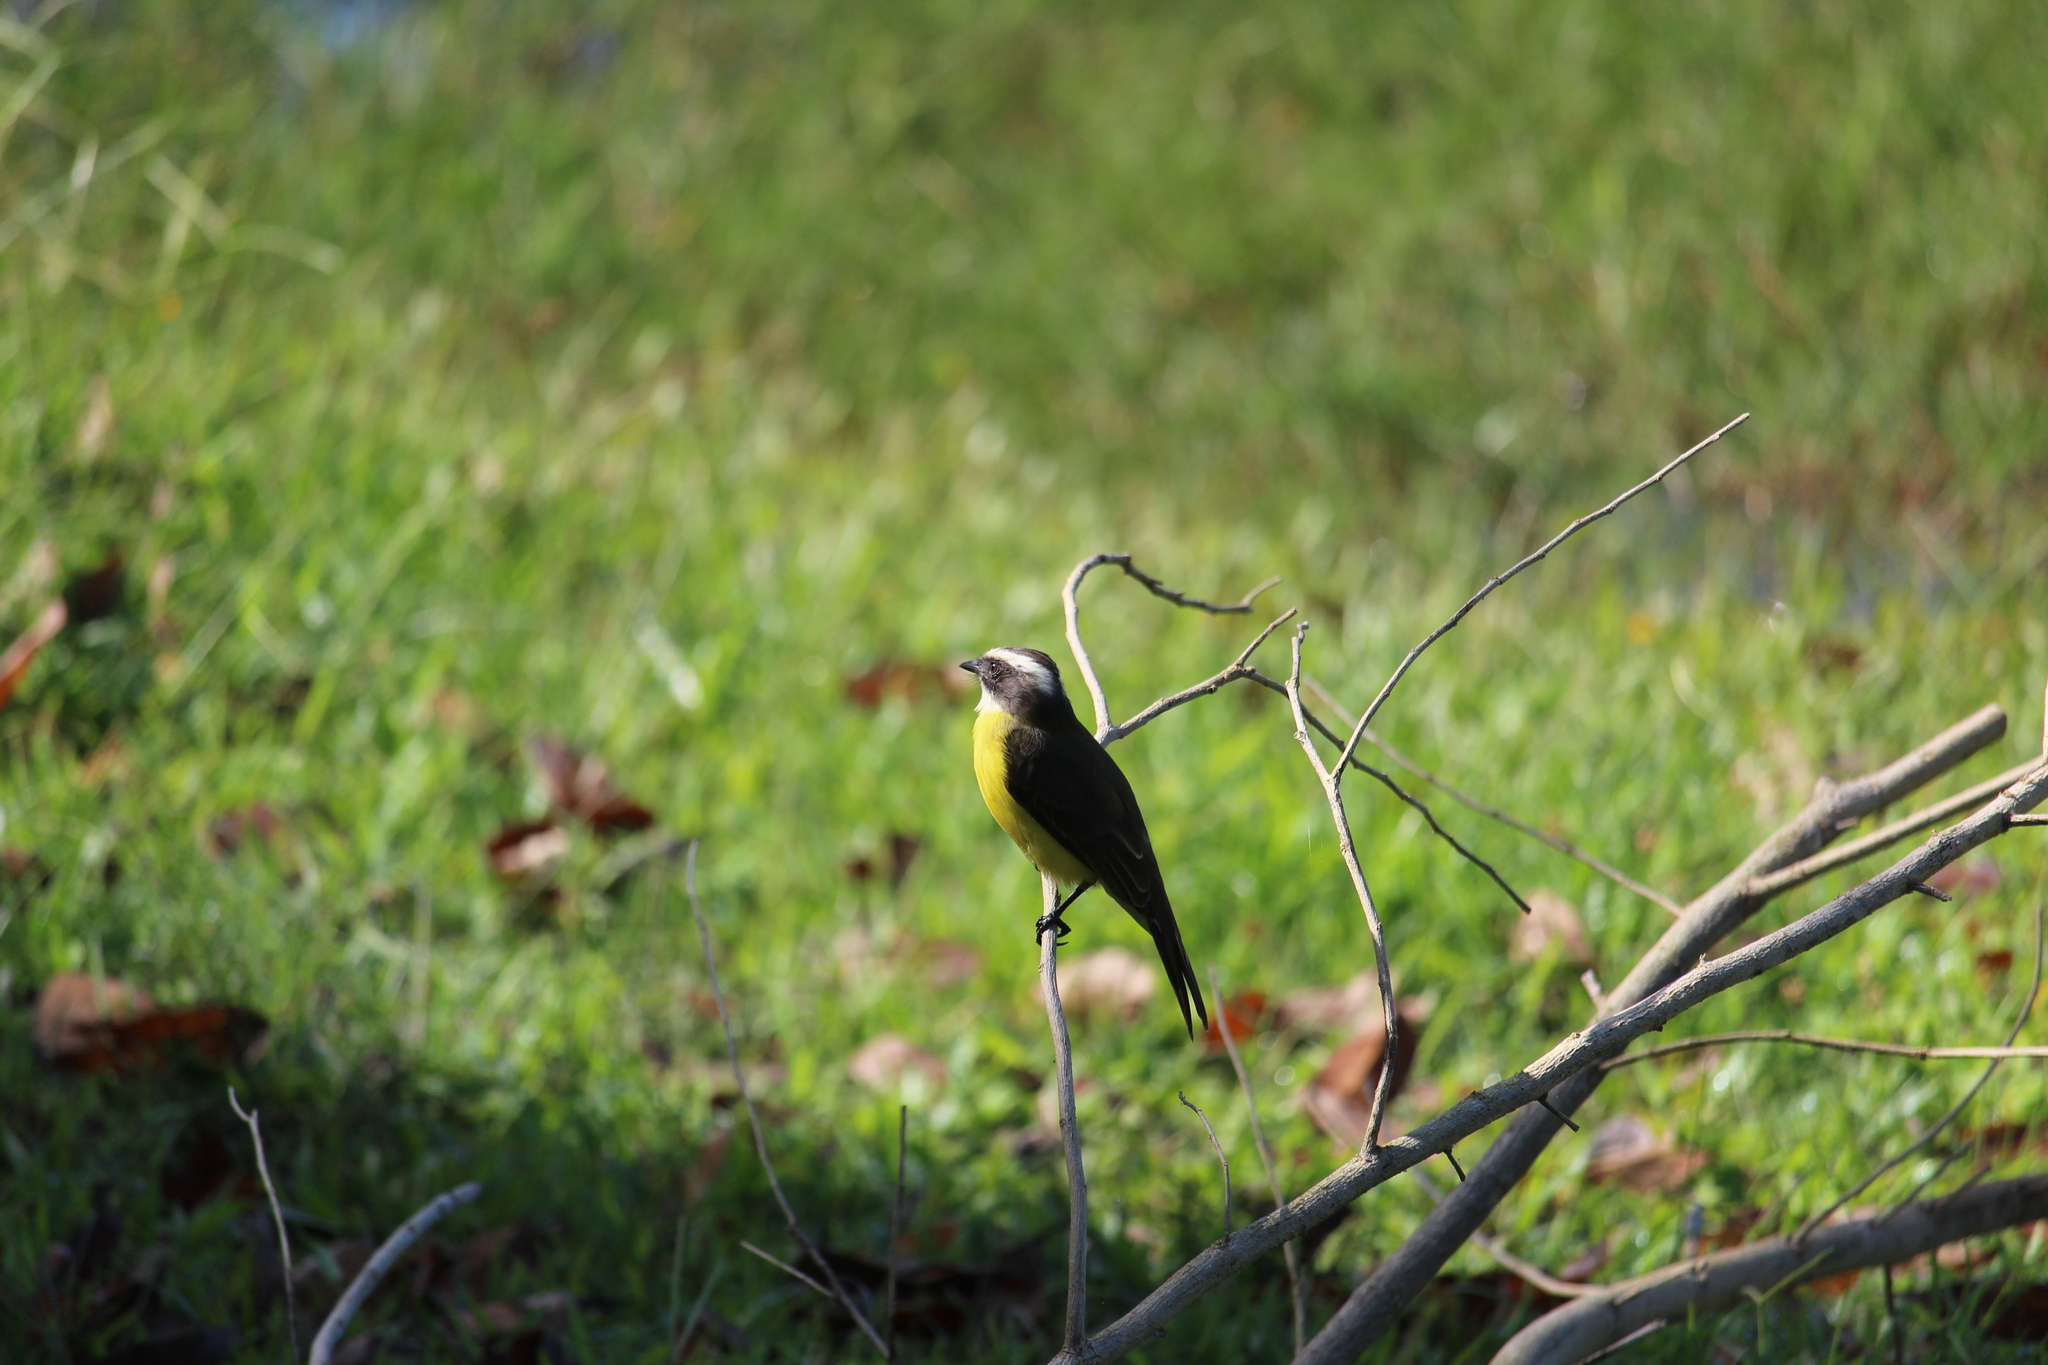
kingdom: Animalia
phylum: Chordata
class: Aves
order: Passeriformes
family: Tyrannidae
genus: Myiozetetes
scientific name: Myiozetetes similis
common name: Social flycatcher
